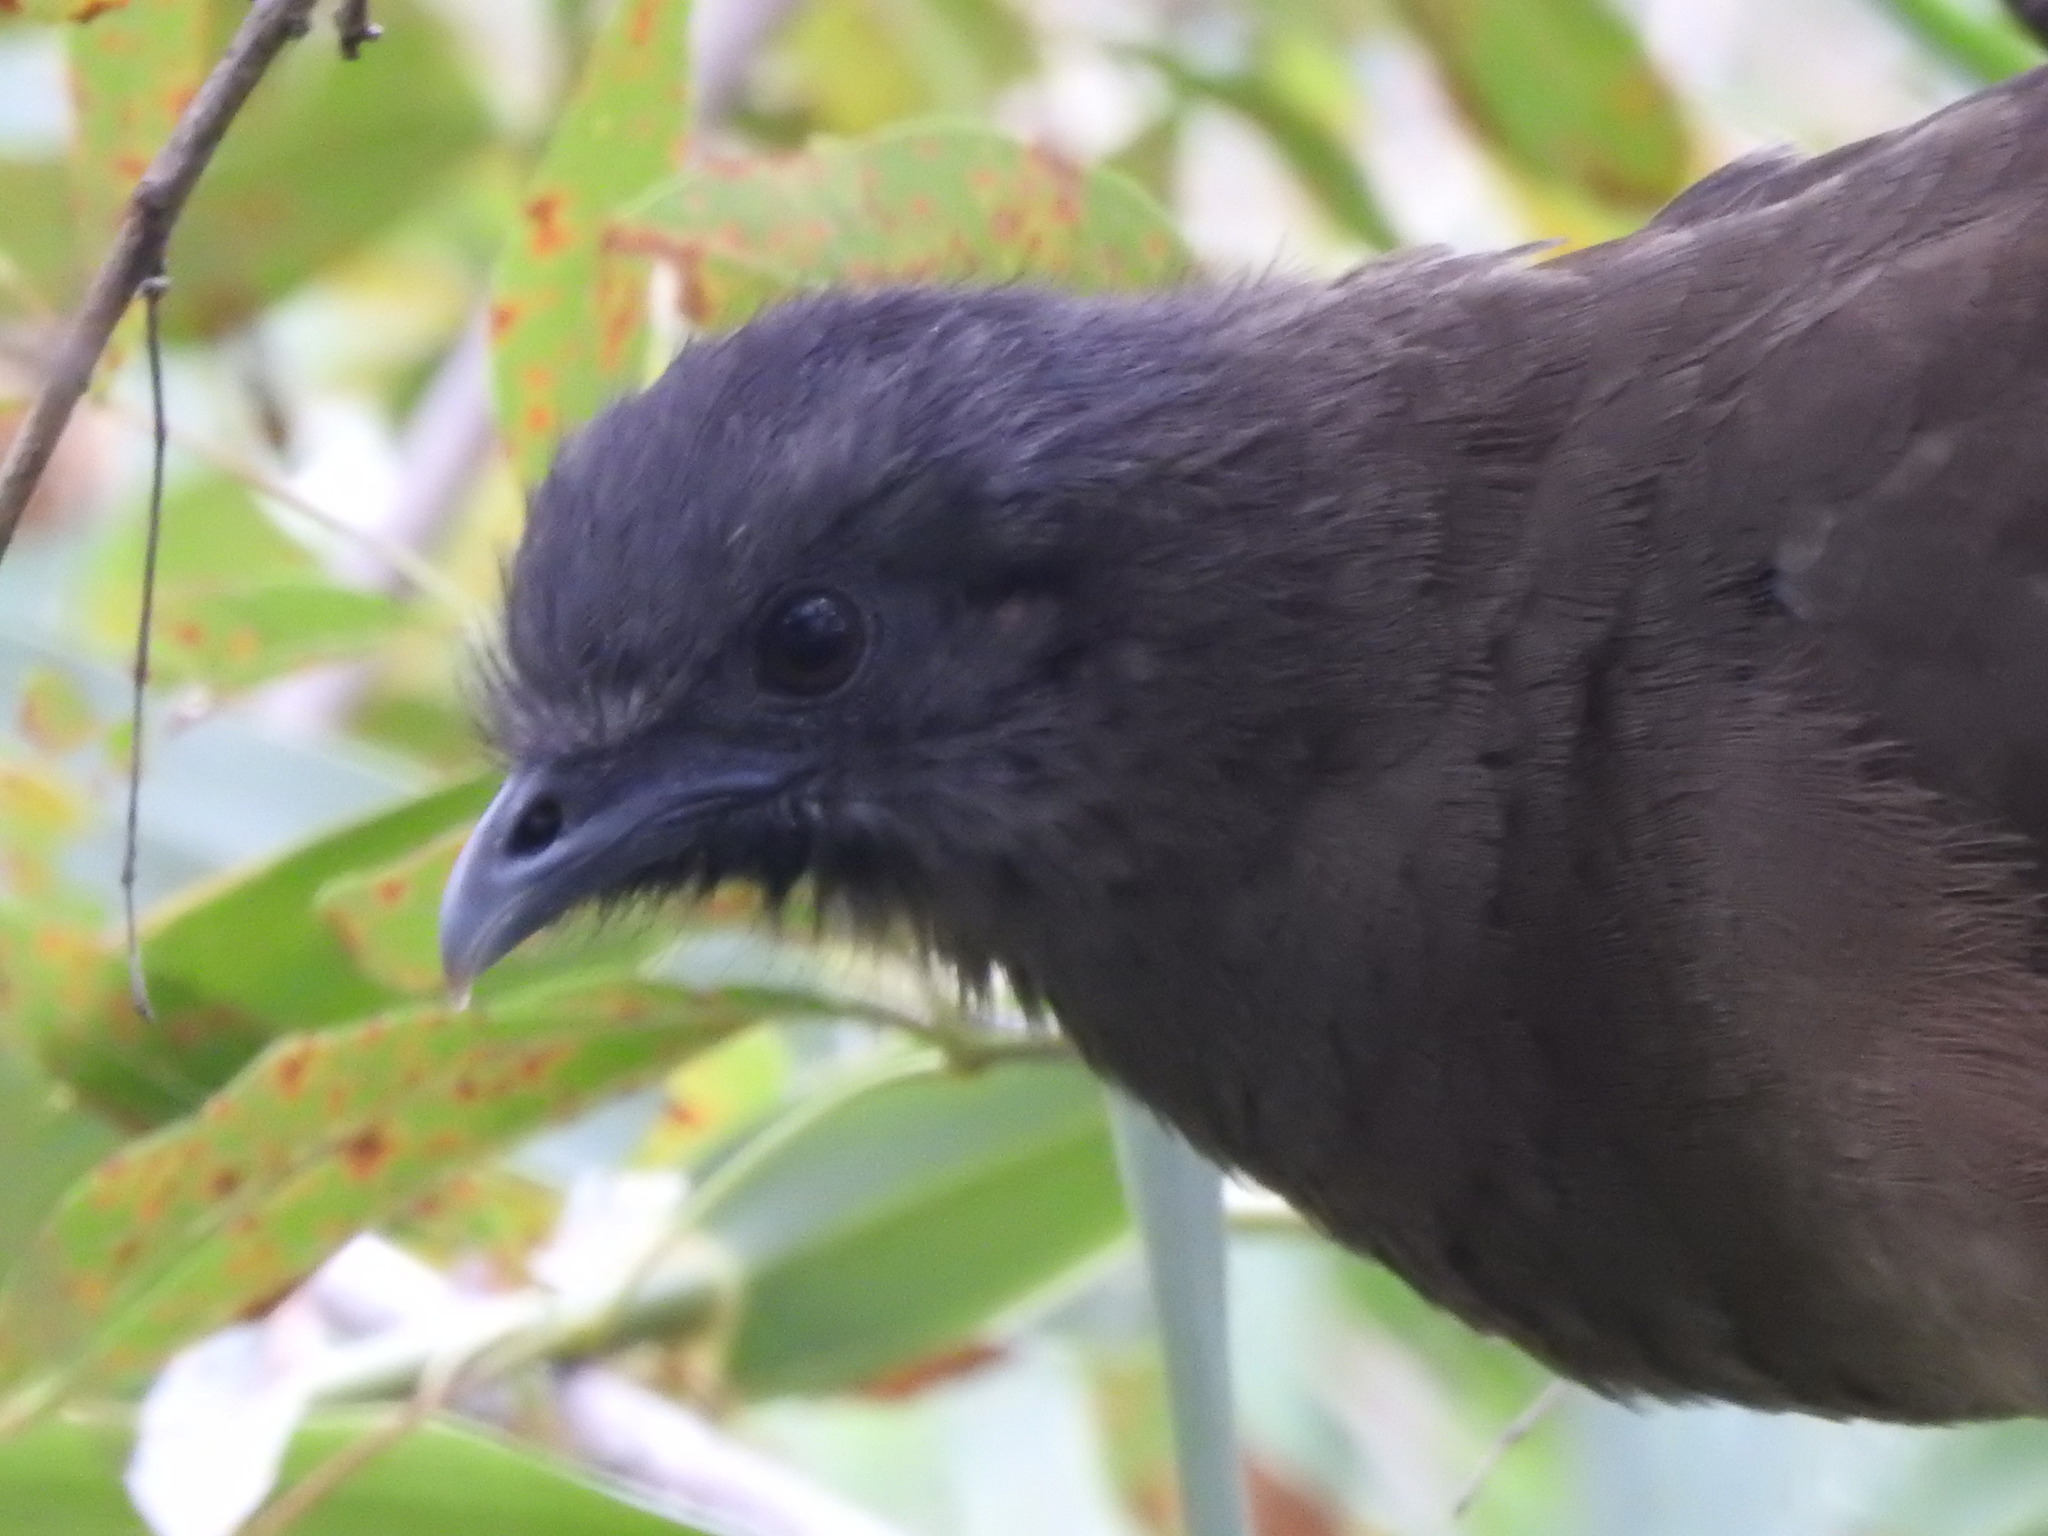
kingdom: Animalia
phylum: Chordata
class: Aves
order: Galliformes
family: Cracidae
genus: Ortalis
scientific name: Ortalis vetula
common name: Plain chachalaca
